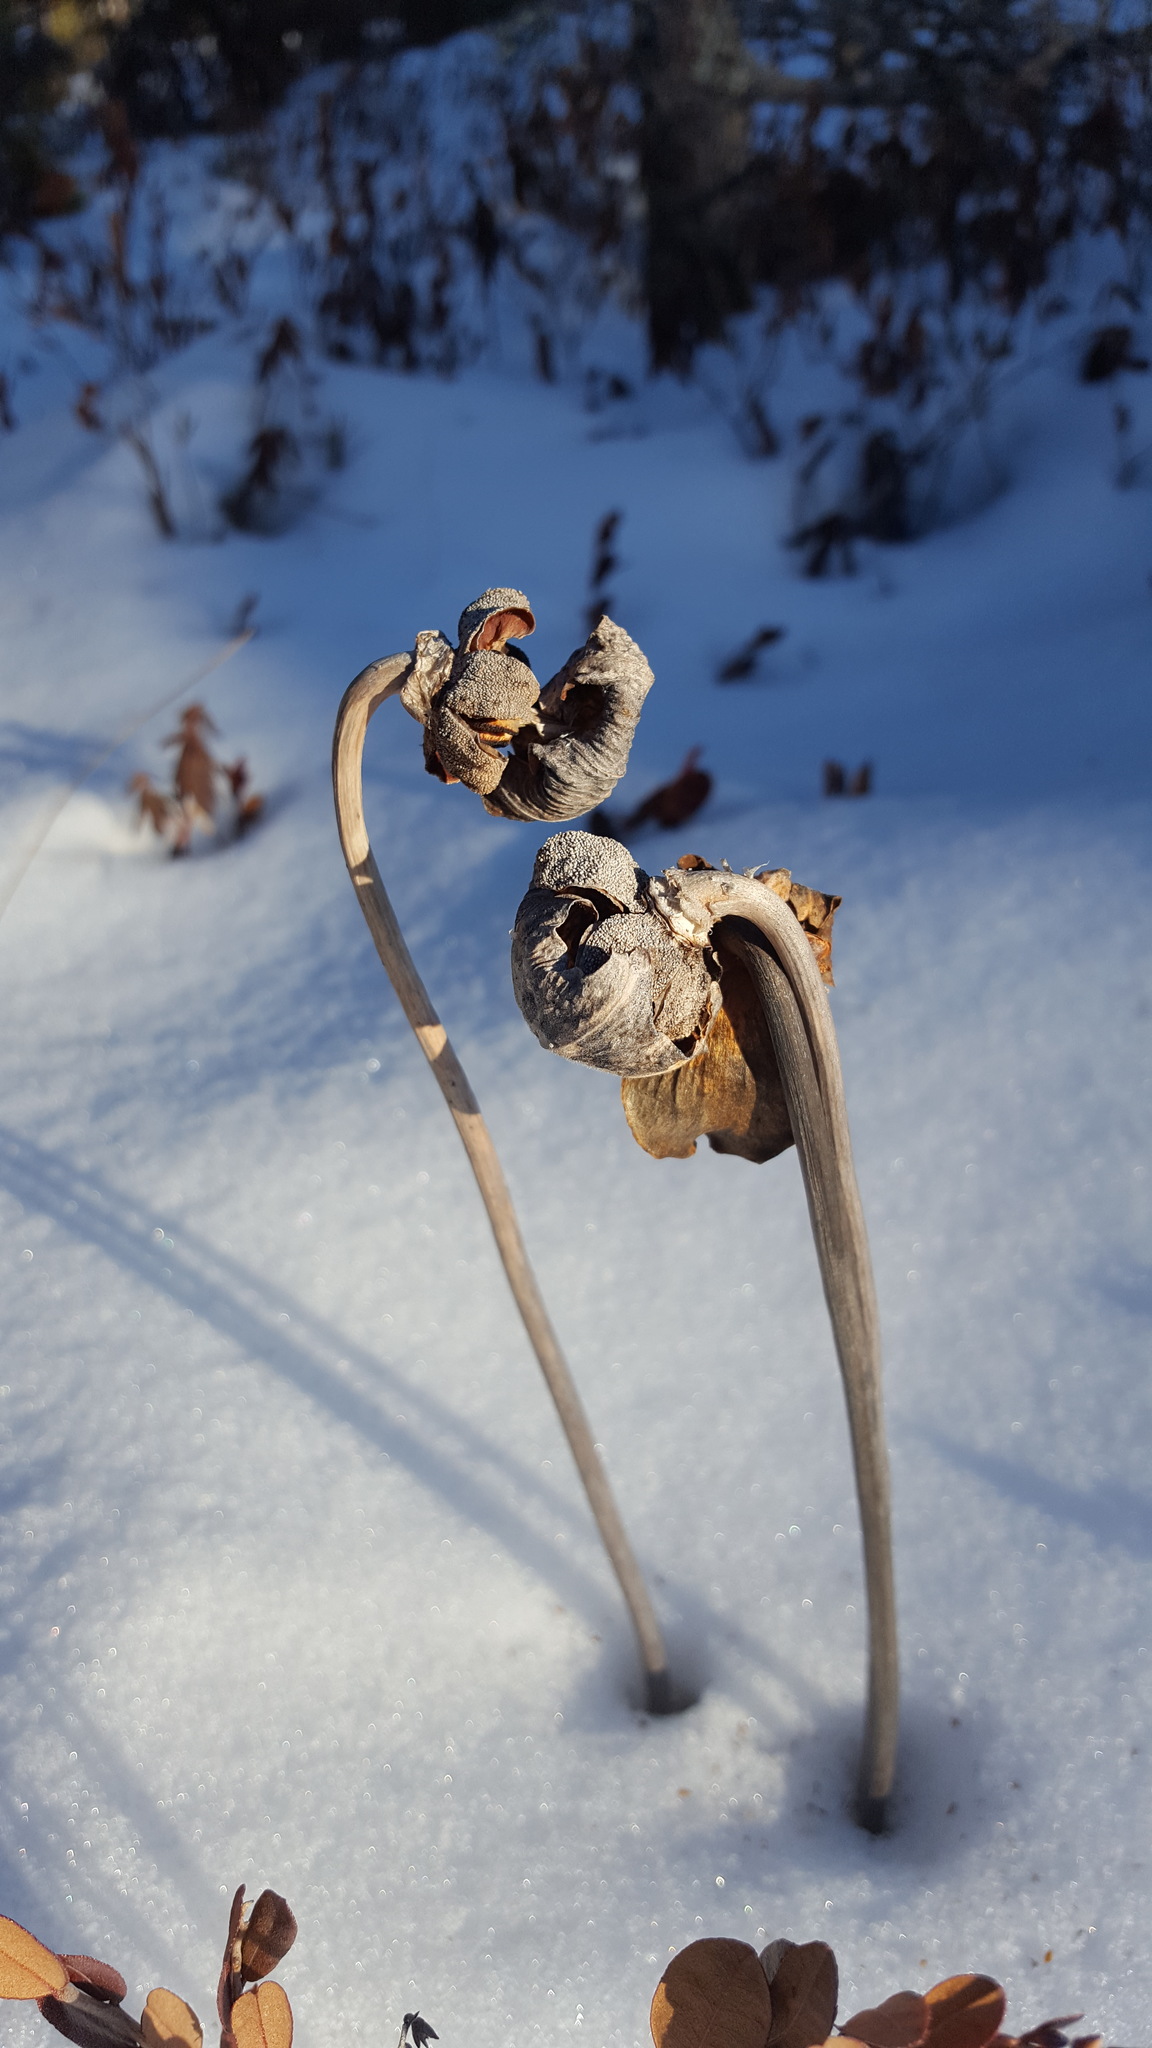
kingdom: Plantae
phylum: Tracheophyta
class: Magnoliopsida
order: Ericales
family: Sarraceniaceae
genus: Sarracenia
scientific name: Sarracenia purpurea
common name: Pitcherplant
